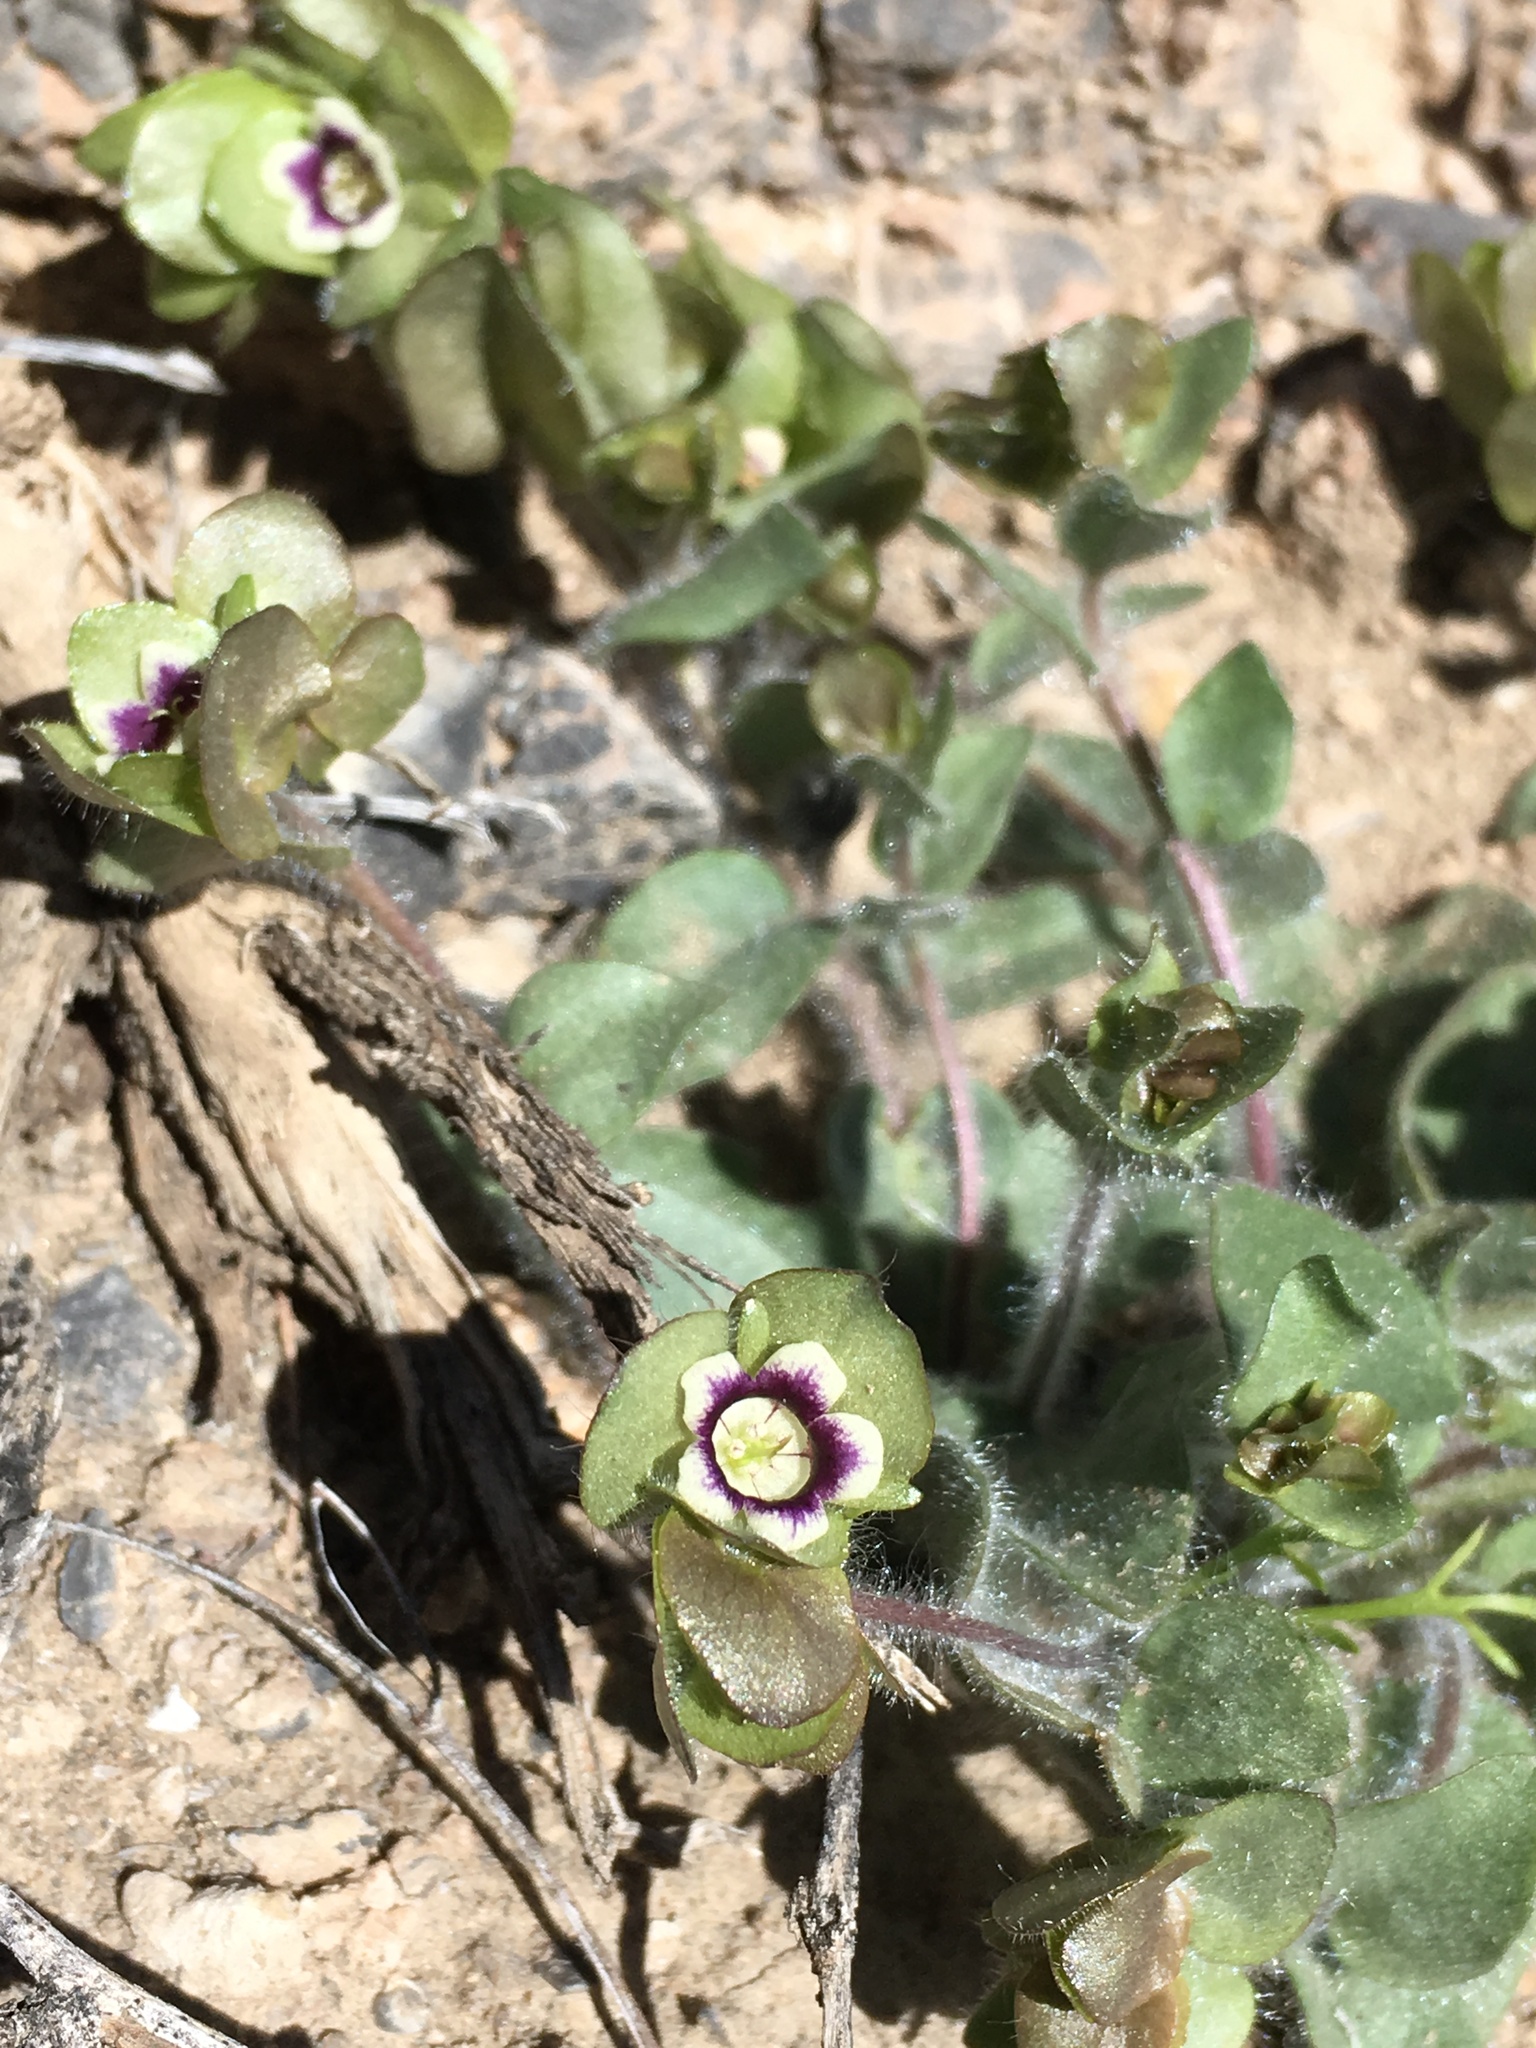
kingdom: Plantae
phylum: Tracheophyta
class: Magnoliopsida
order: Boraginales
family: Hydrophyllaceae
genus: Tricardia
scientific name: Tricardia watsonii
